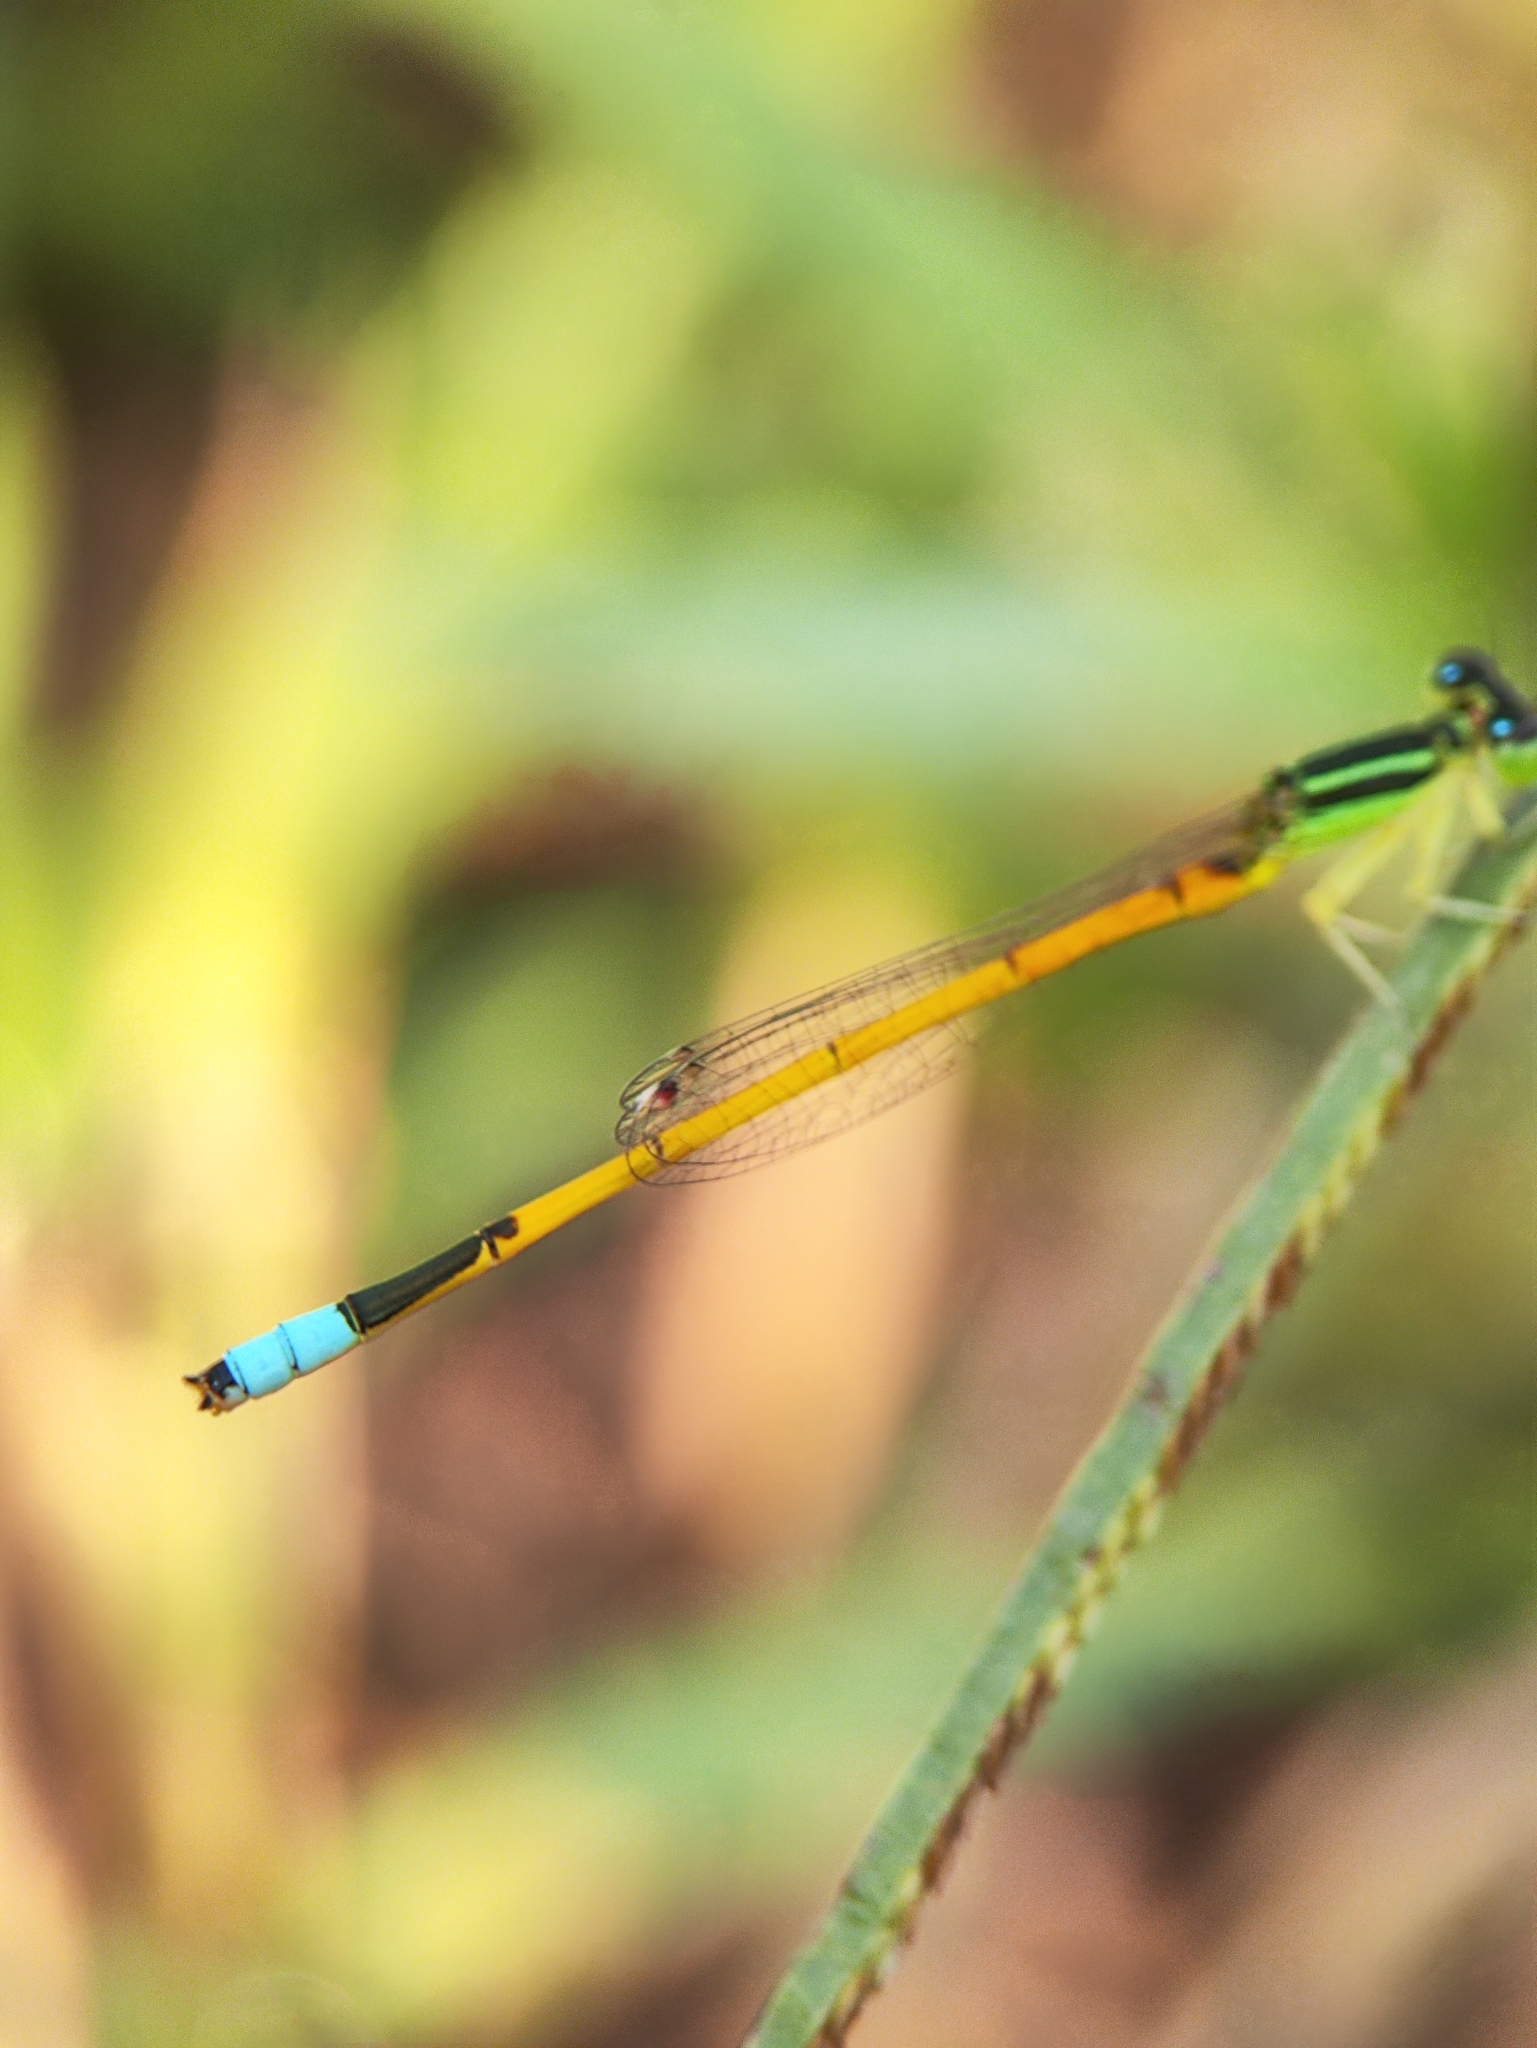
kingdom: Animalia
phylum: Arthropoda
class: Insecta
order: Odonata
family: Coenagrionidae
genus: Ischnura
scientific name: Ischnura rubilio
